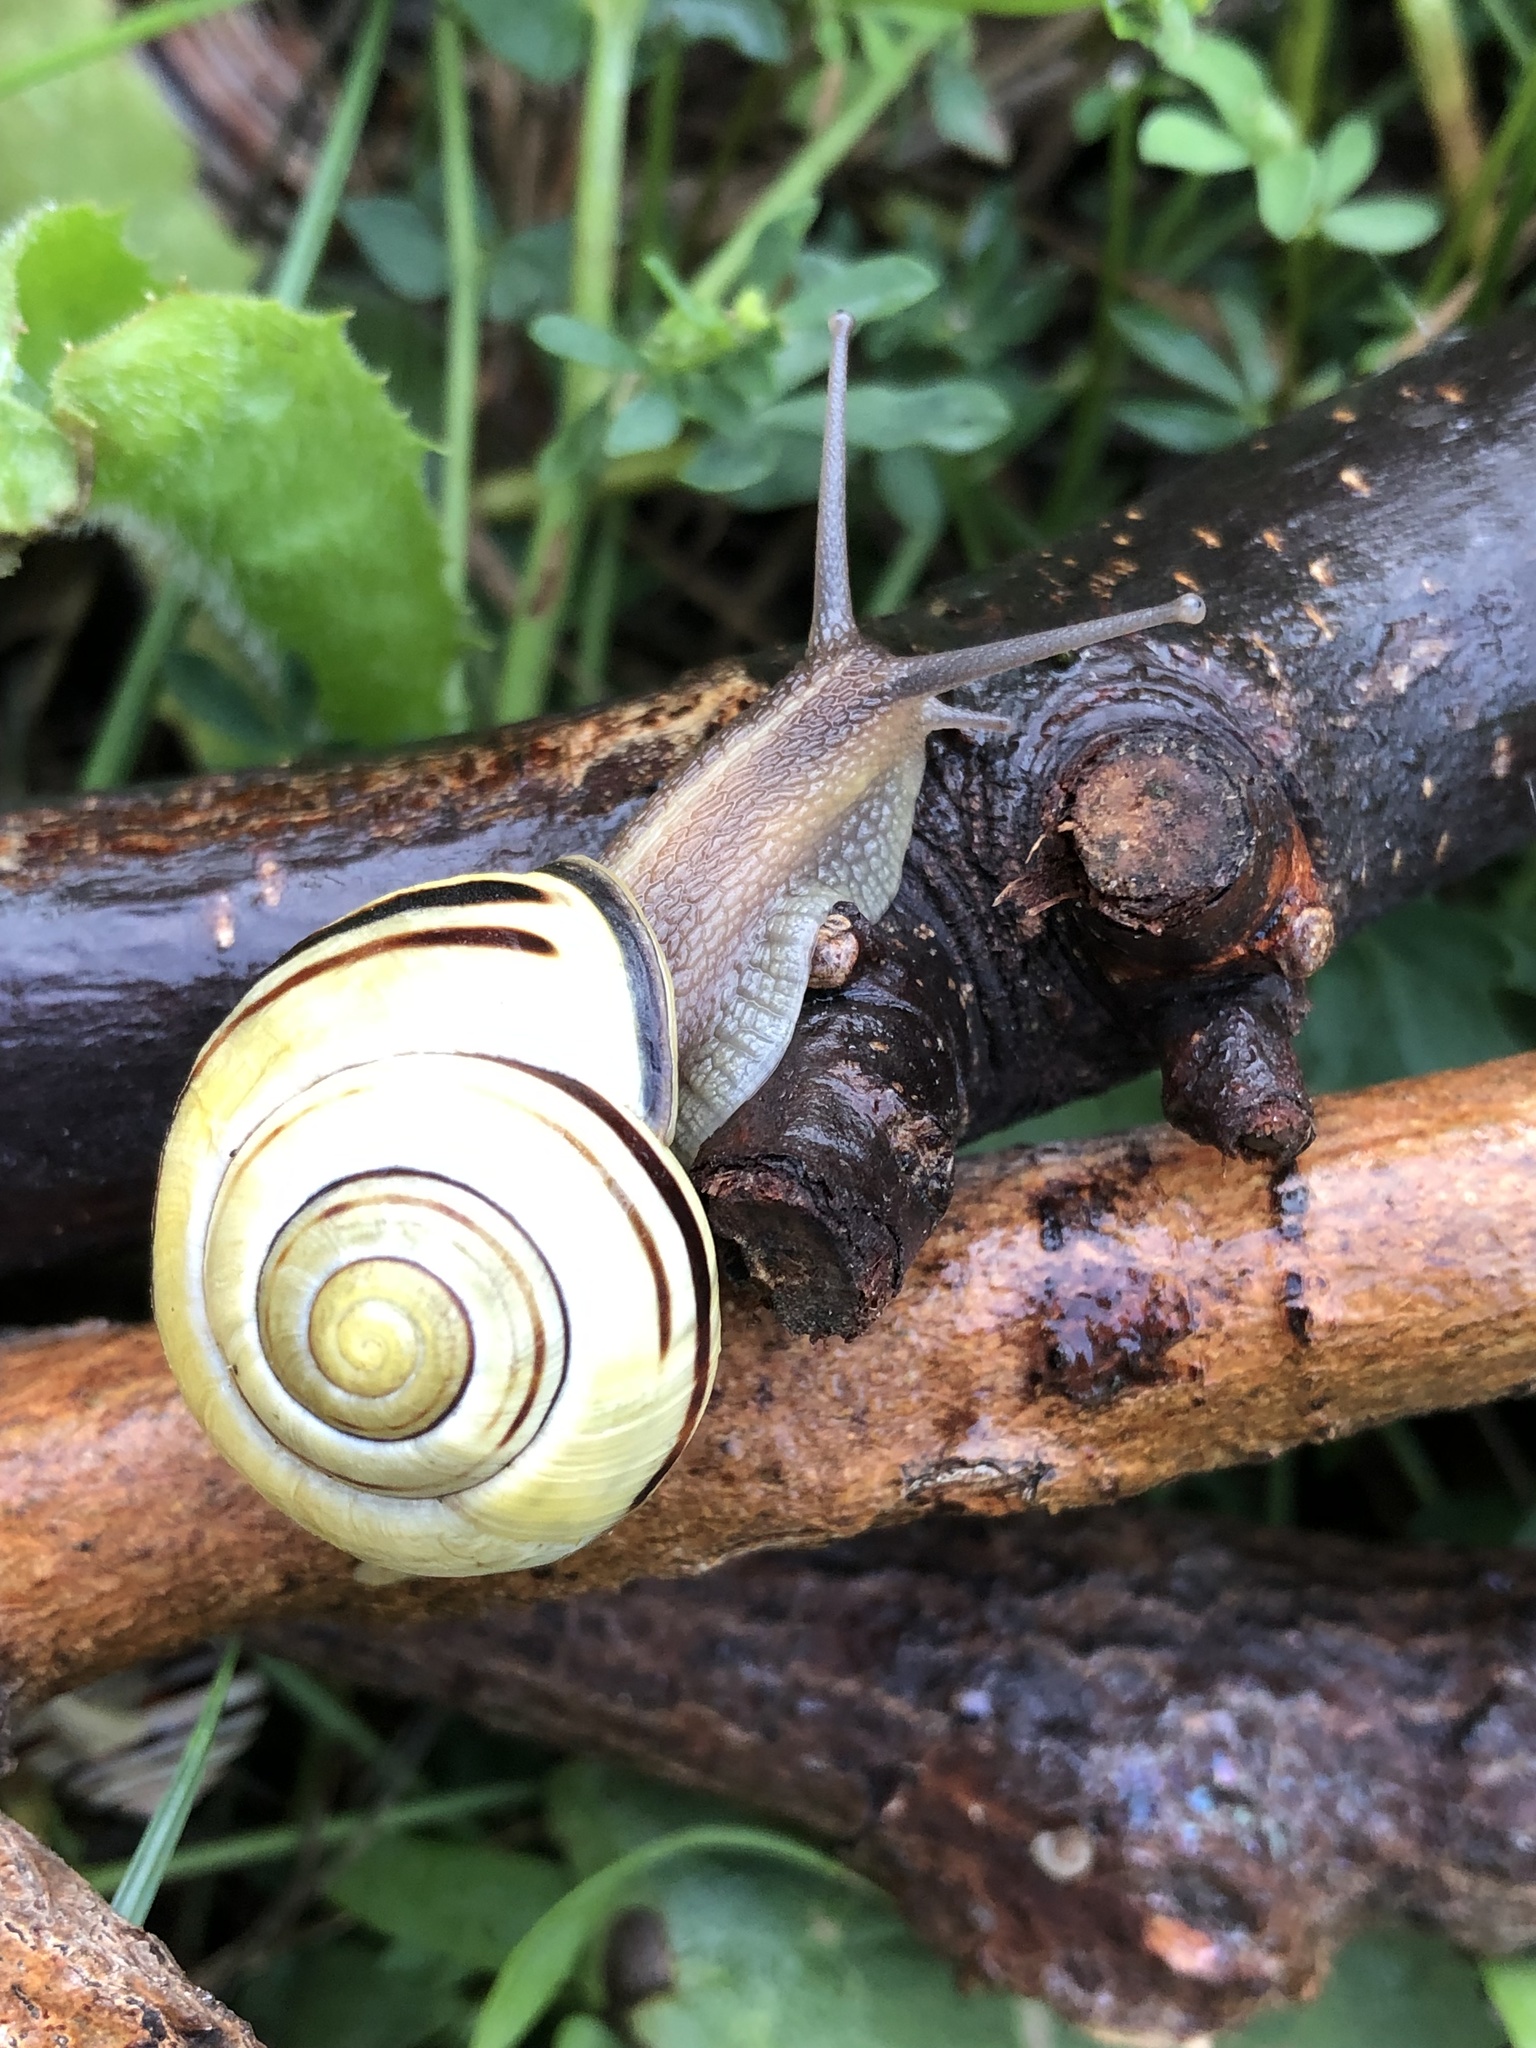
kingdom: Animalia
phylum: Mollusca
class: Gastropoda
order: Stylommatophora
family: Helicidae
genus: Cepaea
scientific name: Cepaea nemoralis
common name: Grovesnail
